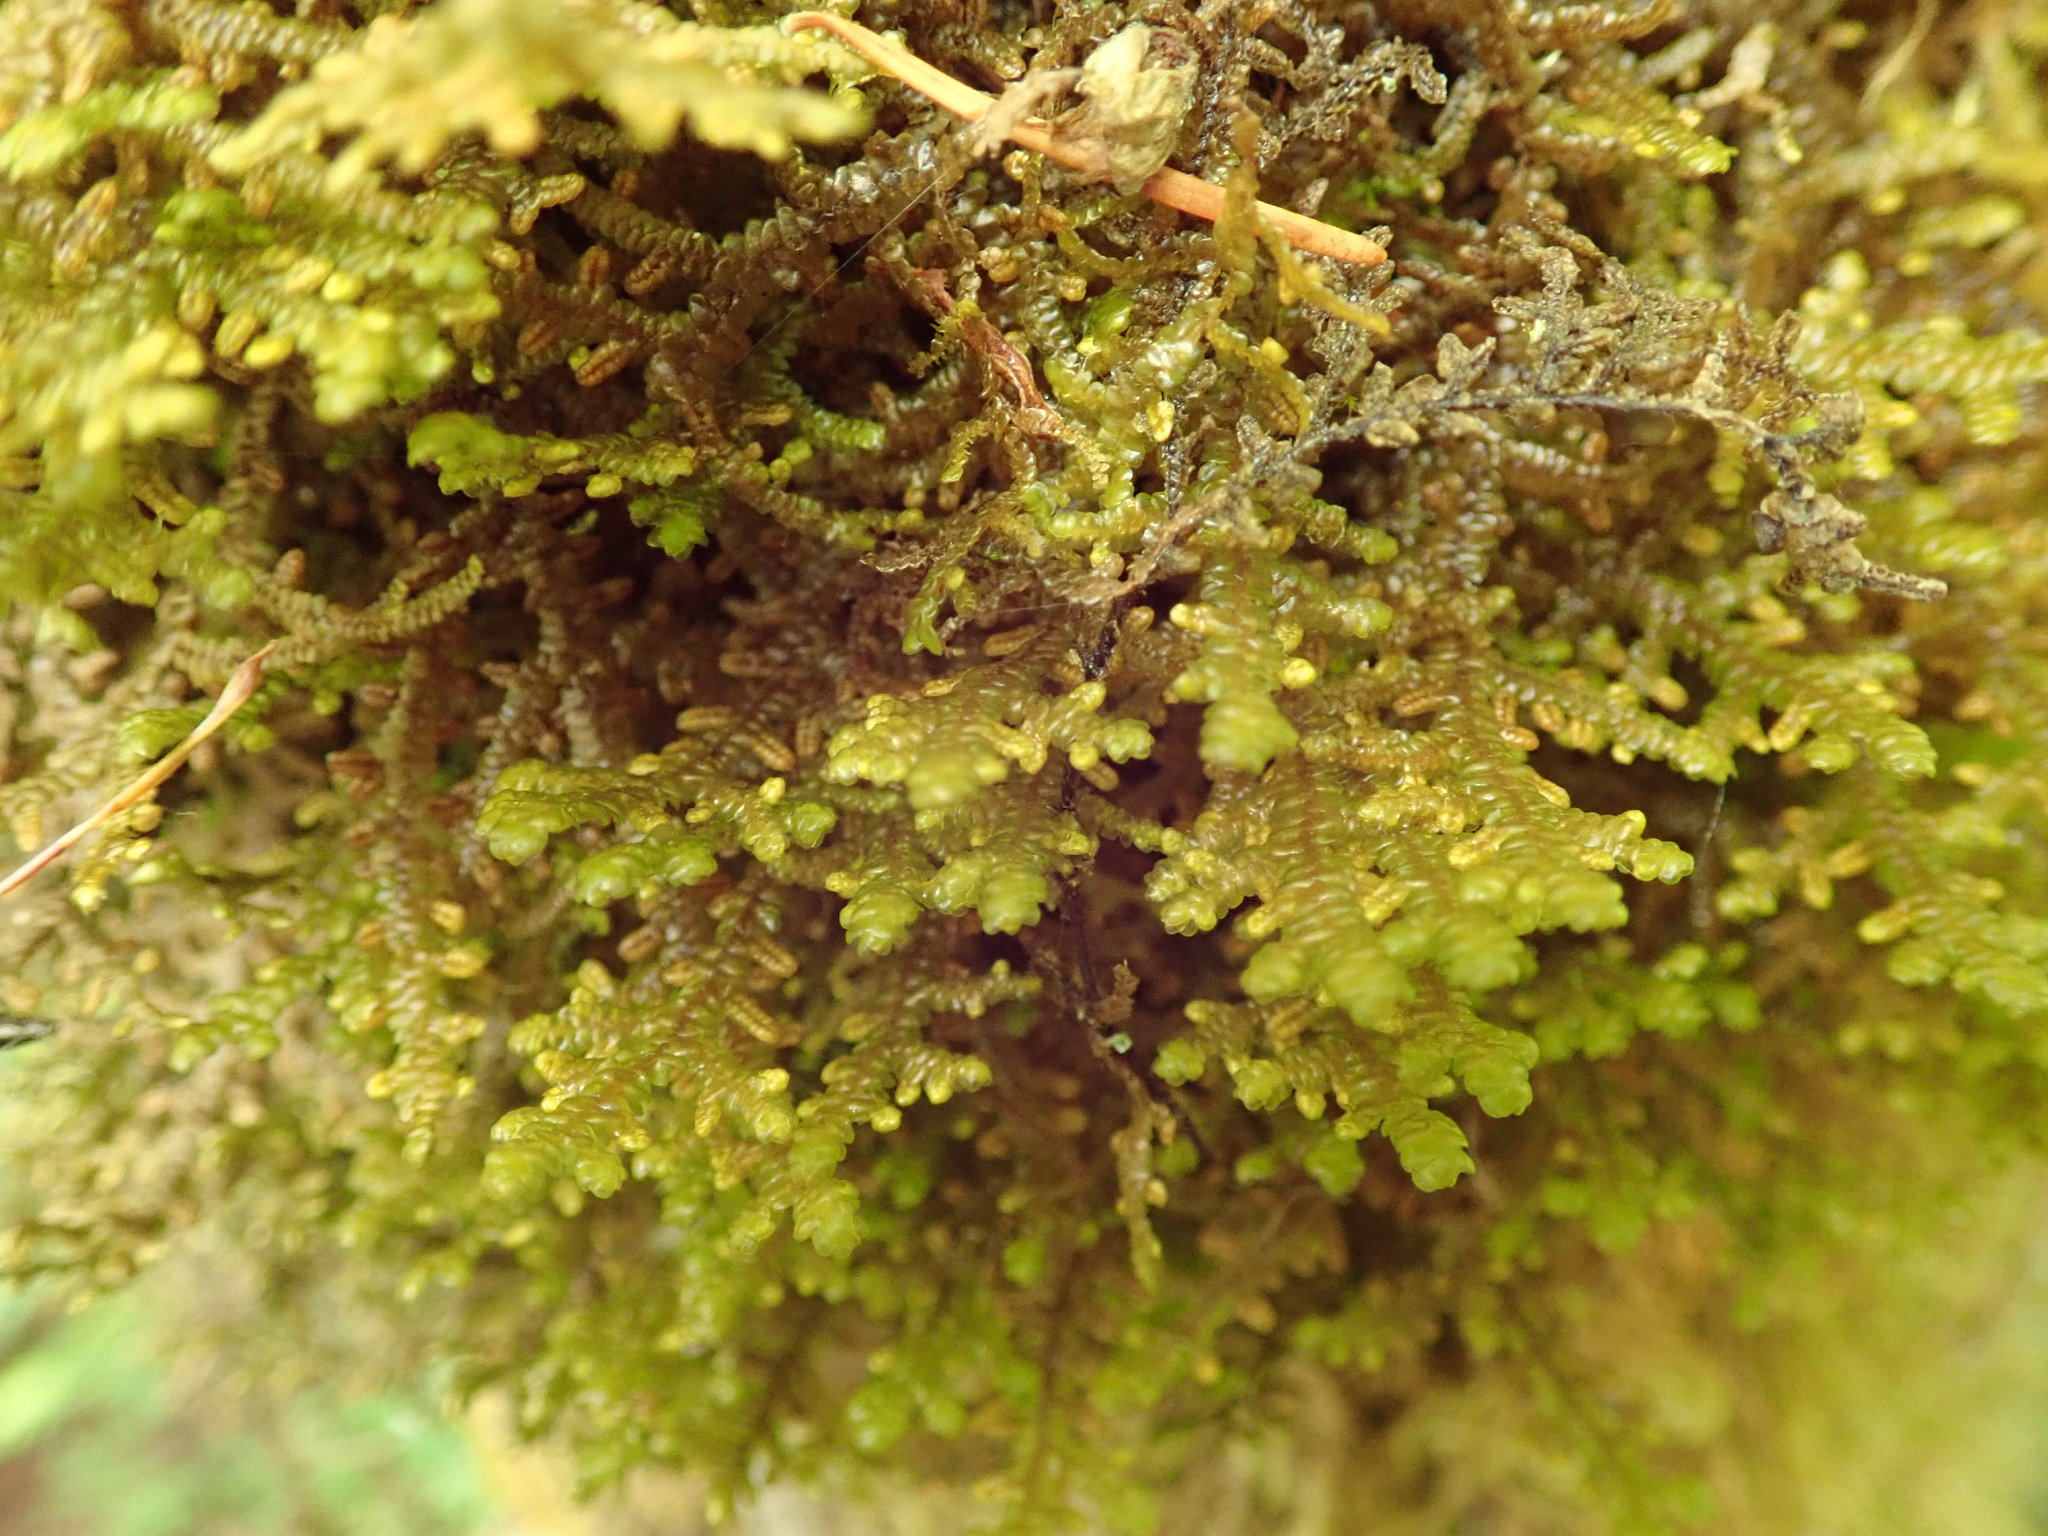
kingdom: Plantae
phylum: Marchantiophyta
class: Jungermanniopsida
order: Porellales
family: Porellaceae
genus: Porella
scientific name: Porella navicularis
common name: Tree ruffle liverwort
